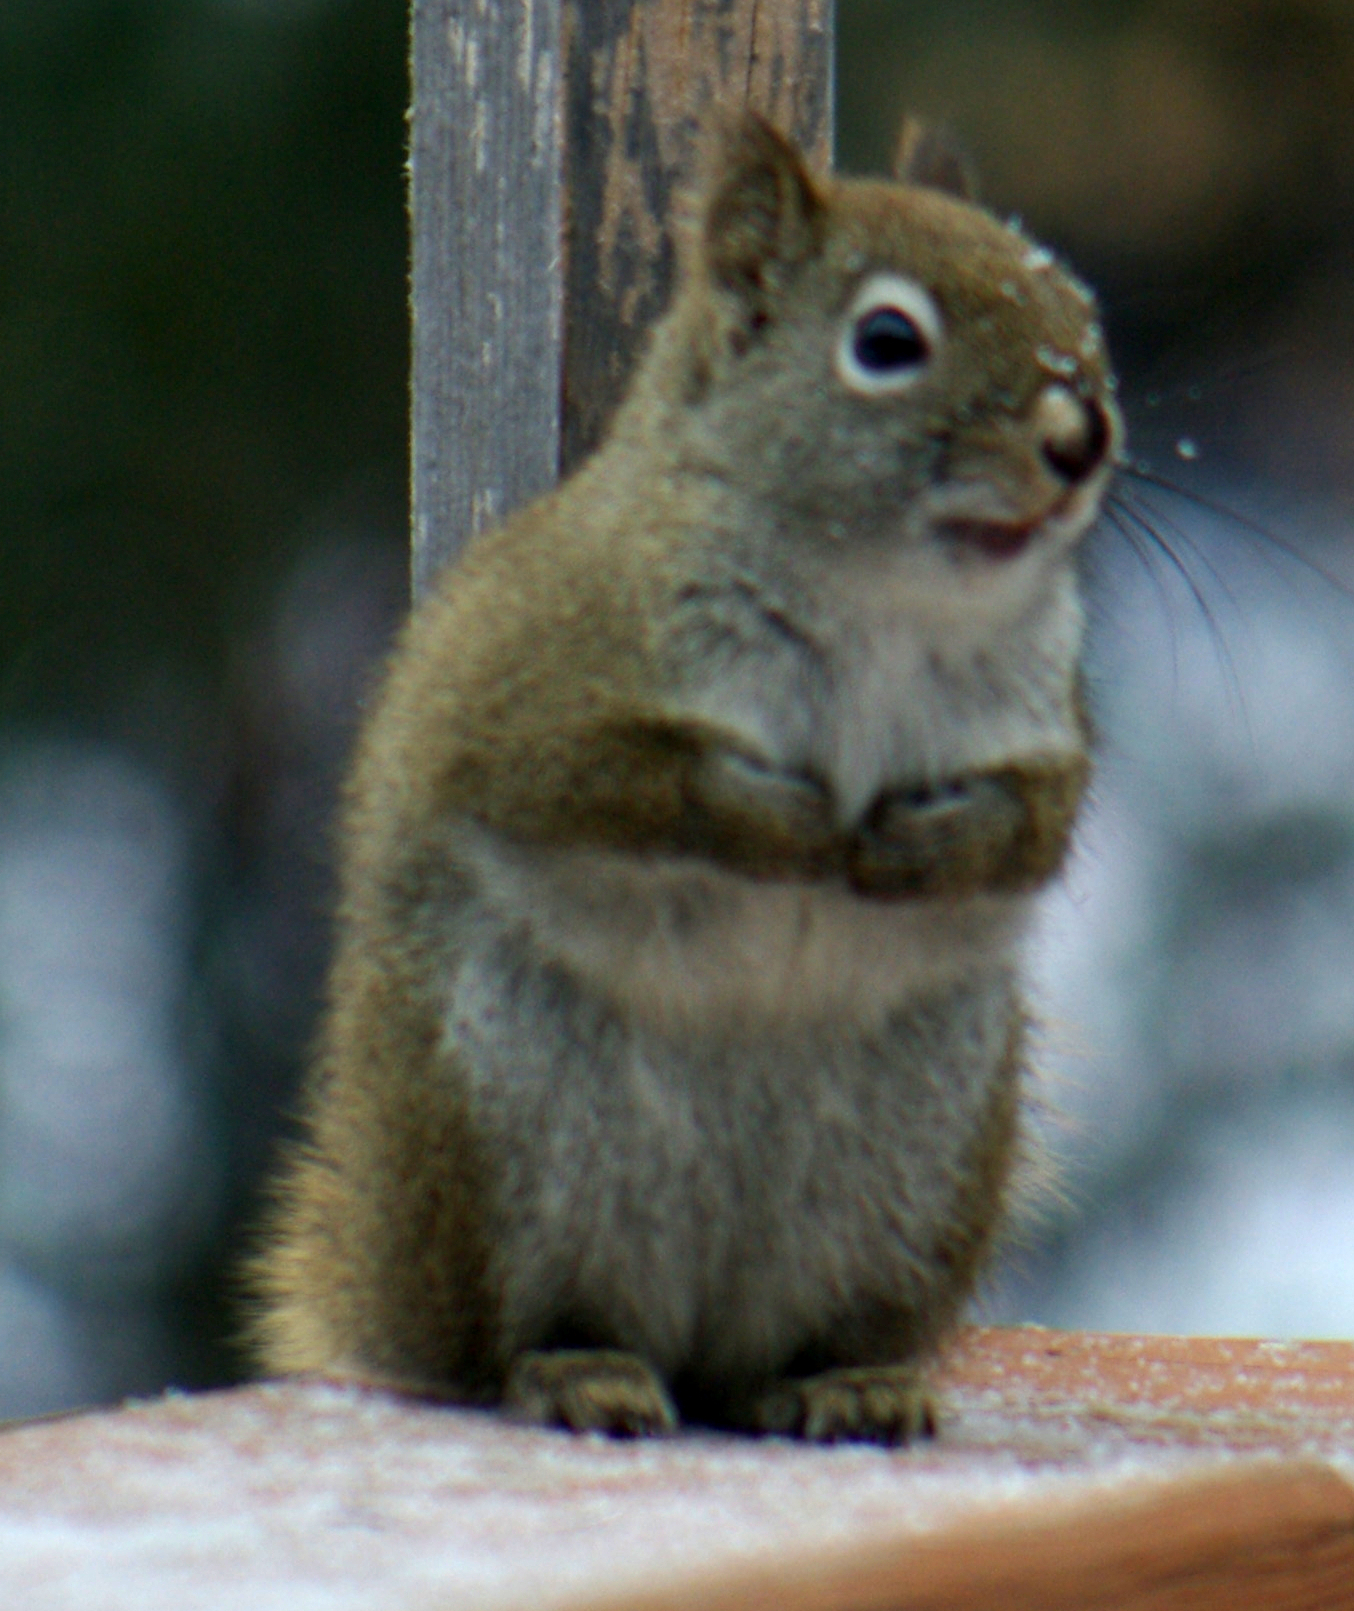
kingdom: Animalia
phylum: Chordata
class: Mammalia
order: Rodentia
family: Sciuridae
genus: Tamiasciurus
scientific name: Tamiasciurus hudsonicus
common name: Red squirrel
